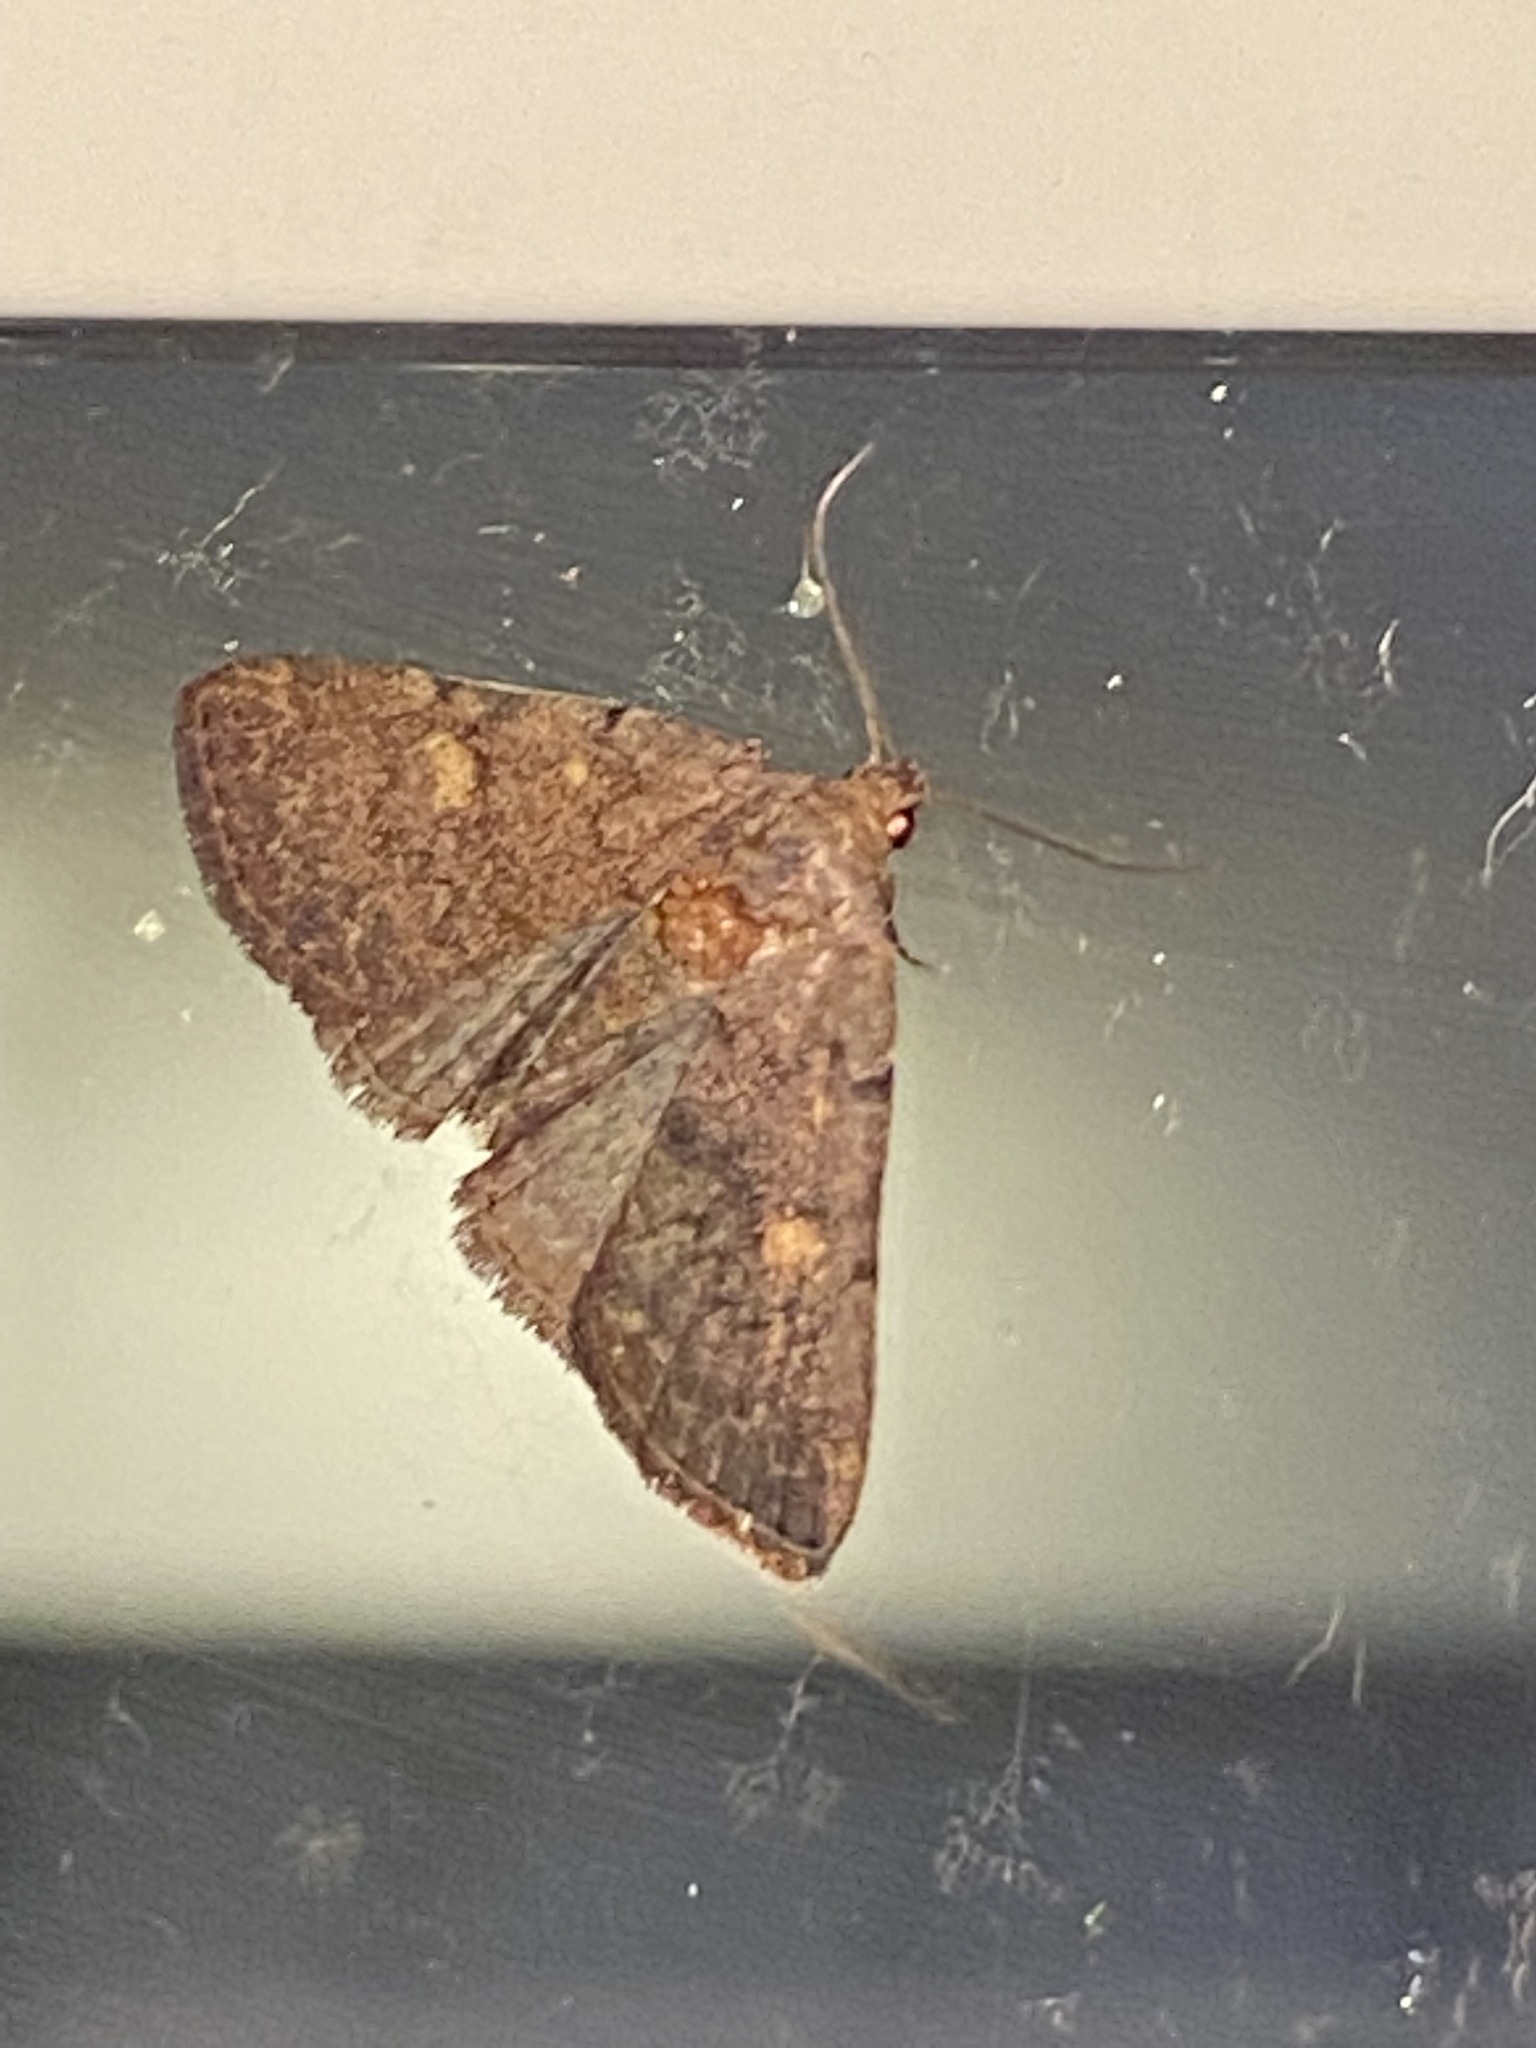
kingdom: Animalia
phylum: Arthropoda
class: Insecta
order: Lepidoptera
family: Erebidae
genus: Idia
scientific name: Idia aemula
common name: Common idia moth
